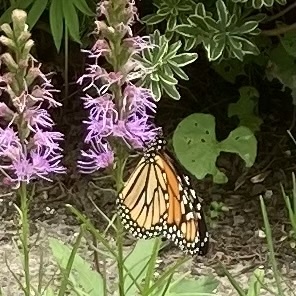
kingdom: Animalia
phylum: Arthropoda
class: Insecta
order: Lepidoptera
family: Nymphalidae
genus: Danaus
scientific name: Danaus plexippus
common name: Monarch
